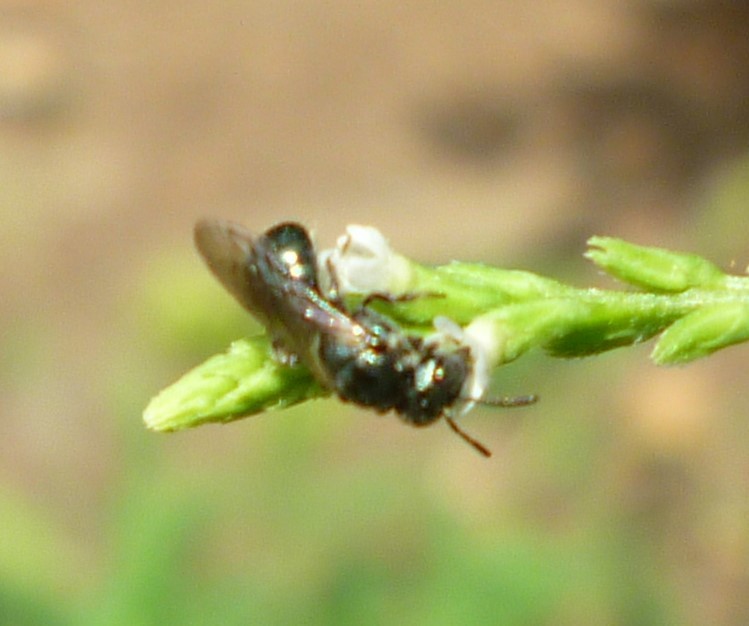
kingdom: Animalia
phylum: Arthropoda
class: Insecta
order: Hymenoptera
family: Apidae
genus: Zadontomerus
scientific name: Zadontomerus
